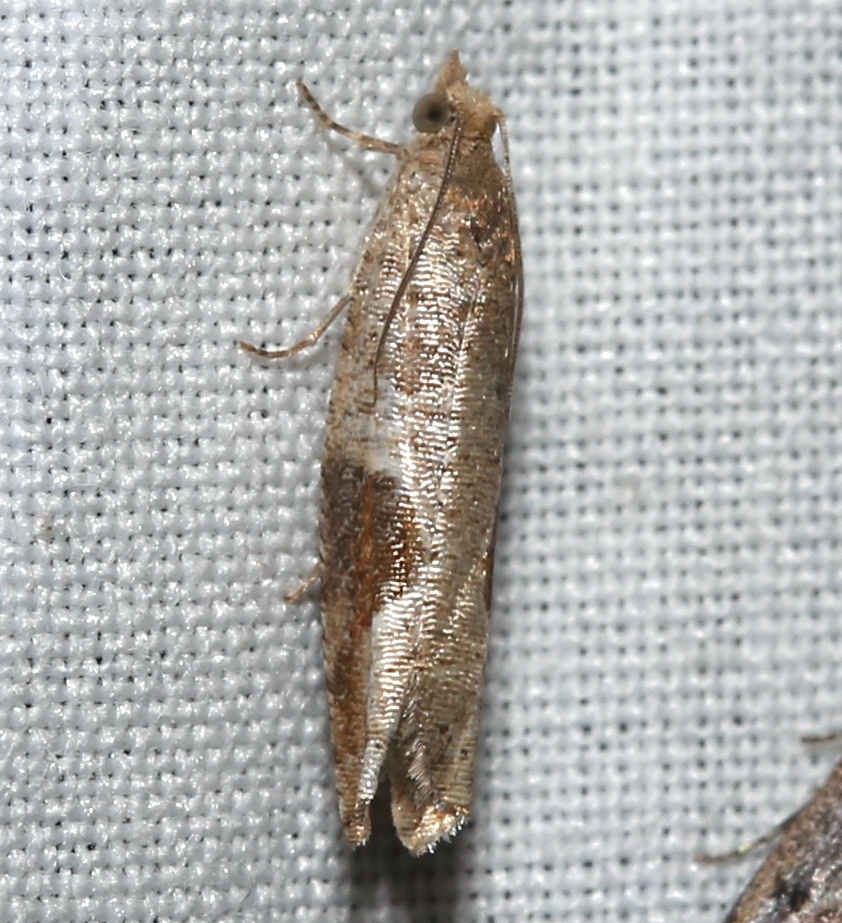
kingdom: Animalia
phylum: Arthropoda
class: Insecta
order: Lepidoptera
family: Tortricidae
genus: Pseudexentera
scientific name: Pseudexentera virginiana
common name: Virginia pseudexentera moth
